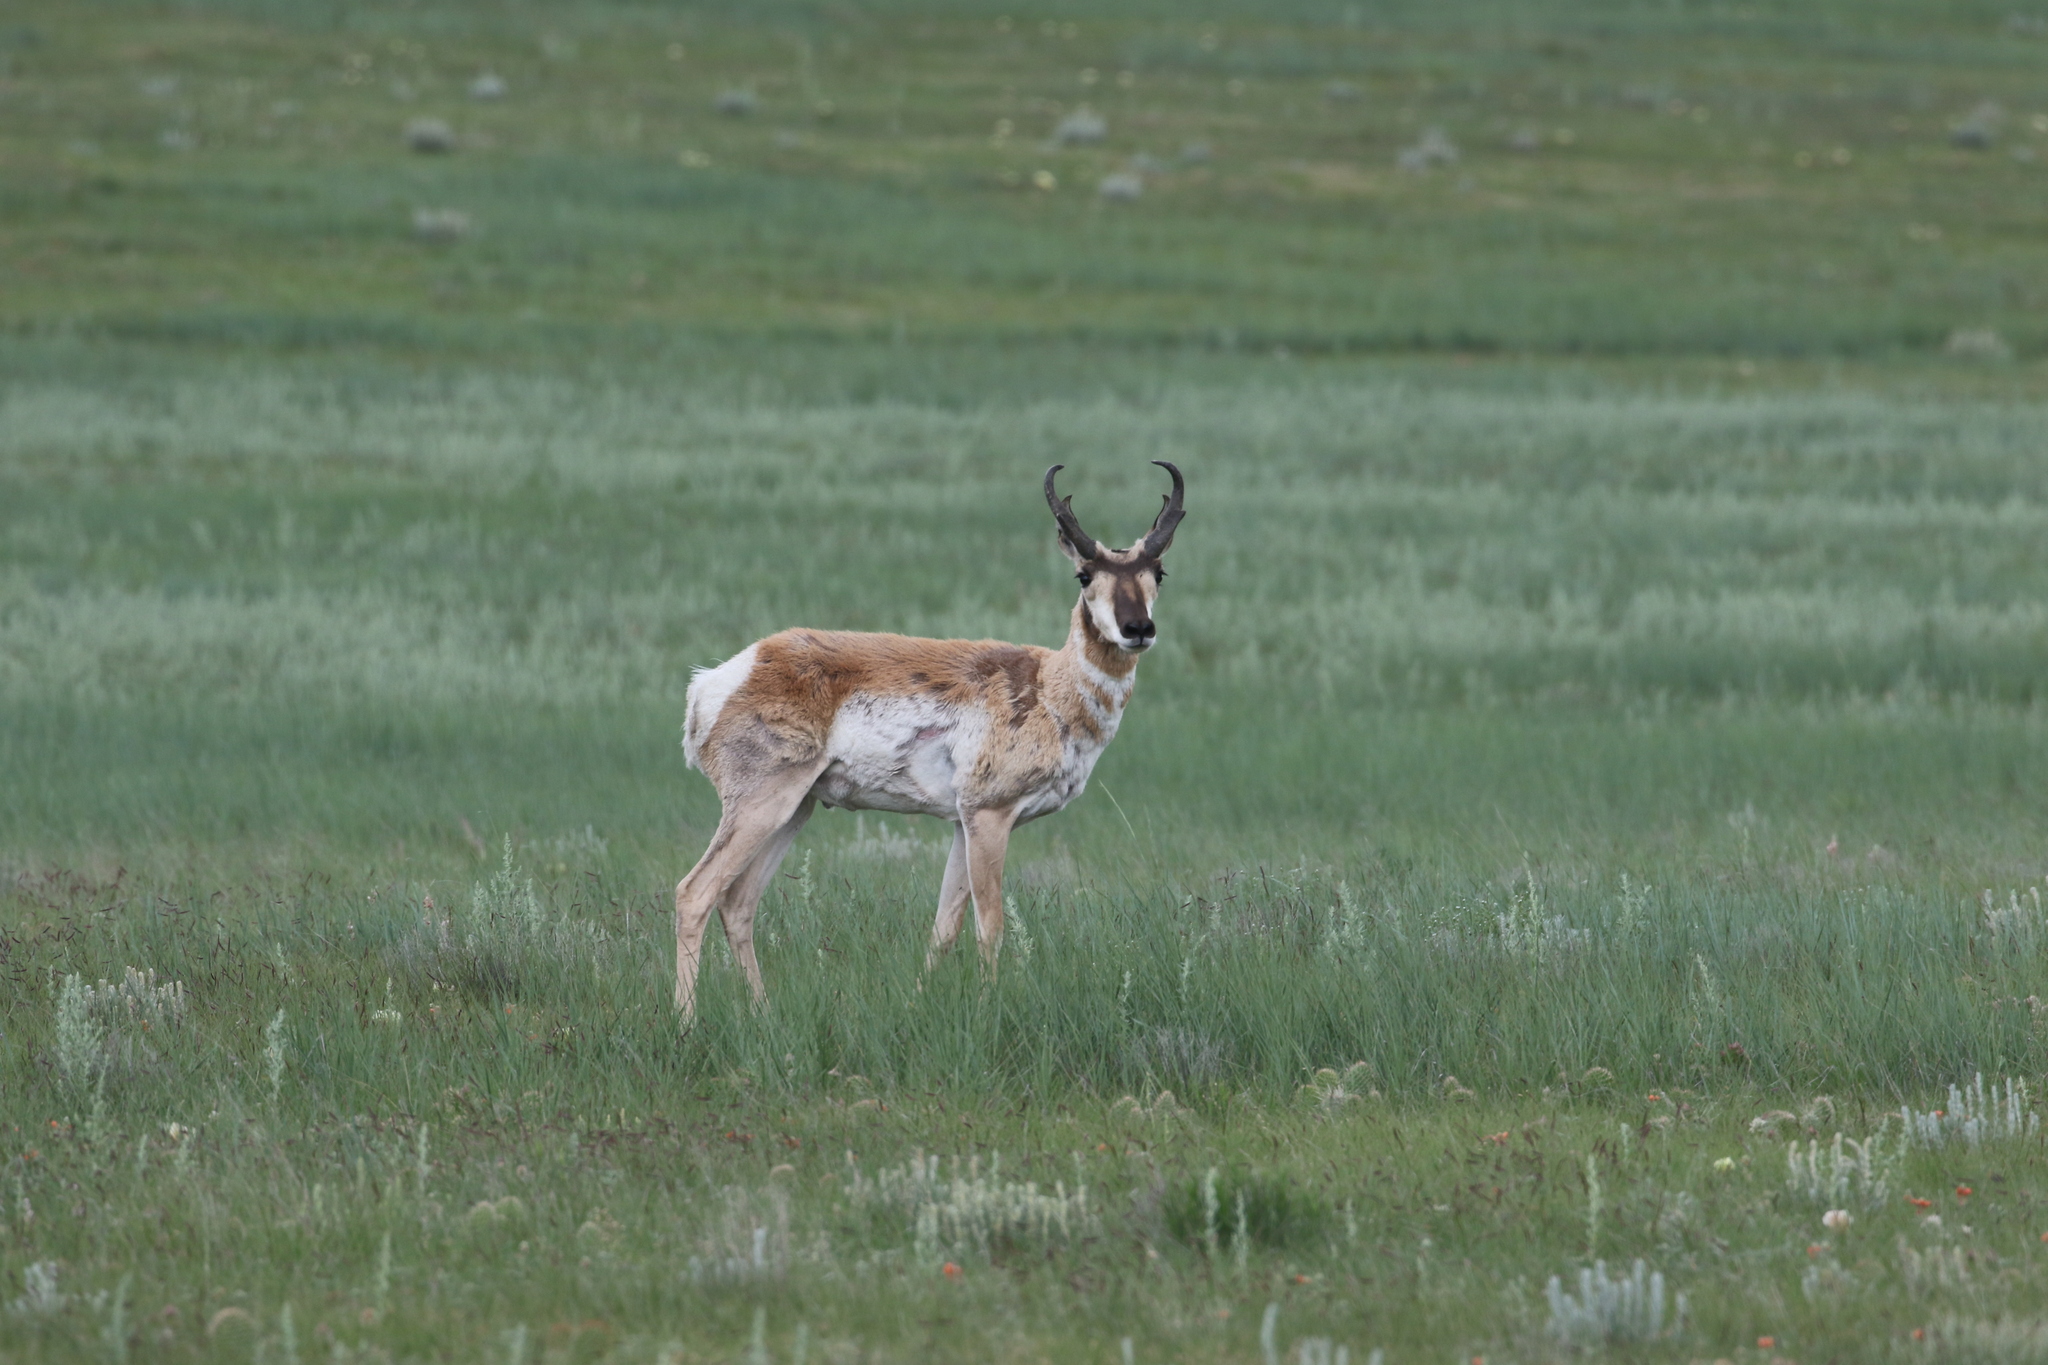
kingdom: Animalia
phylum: Chordata
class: Mammalia
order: Artiodactyla
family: Antilocapridae
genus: Antilocapra
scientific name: Antilocapra americana
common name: Pronghorn
